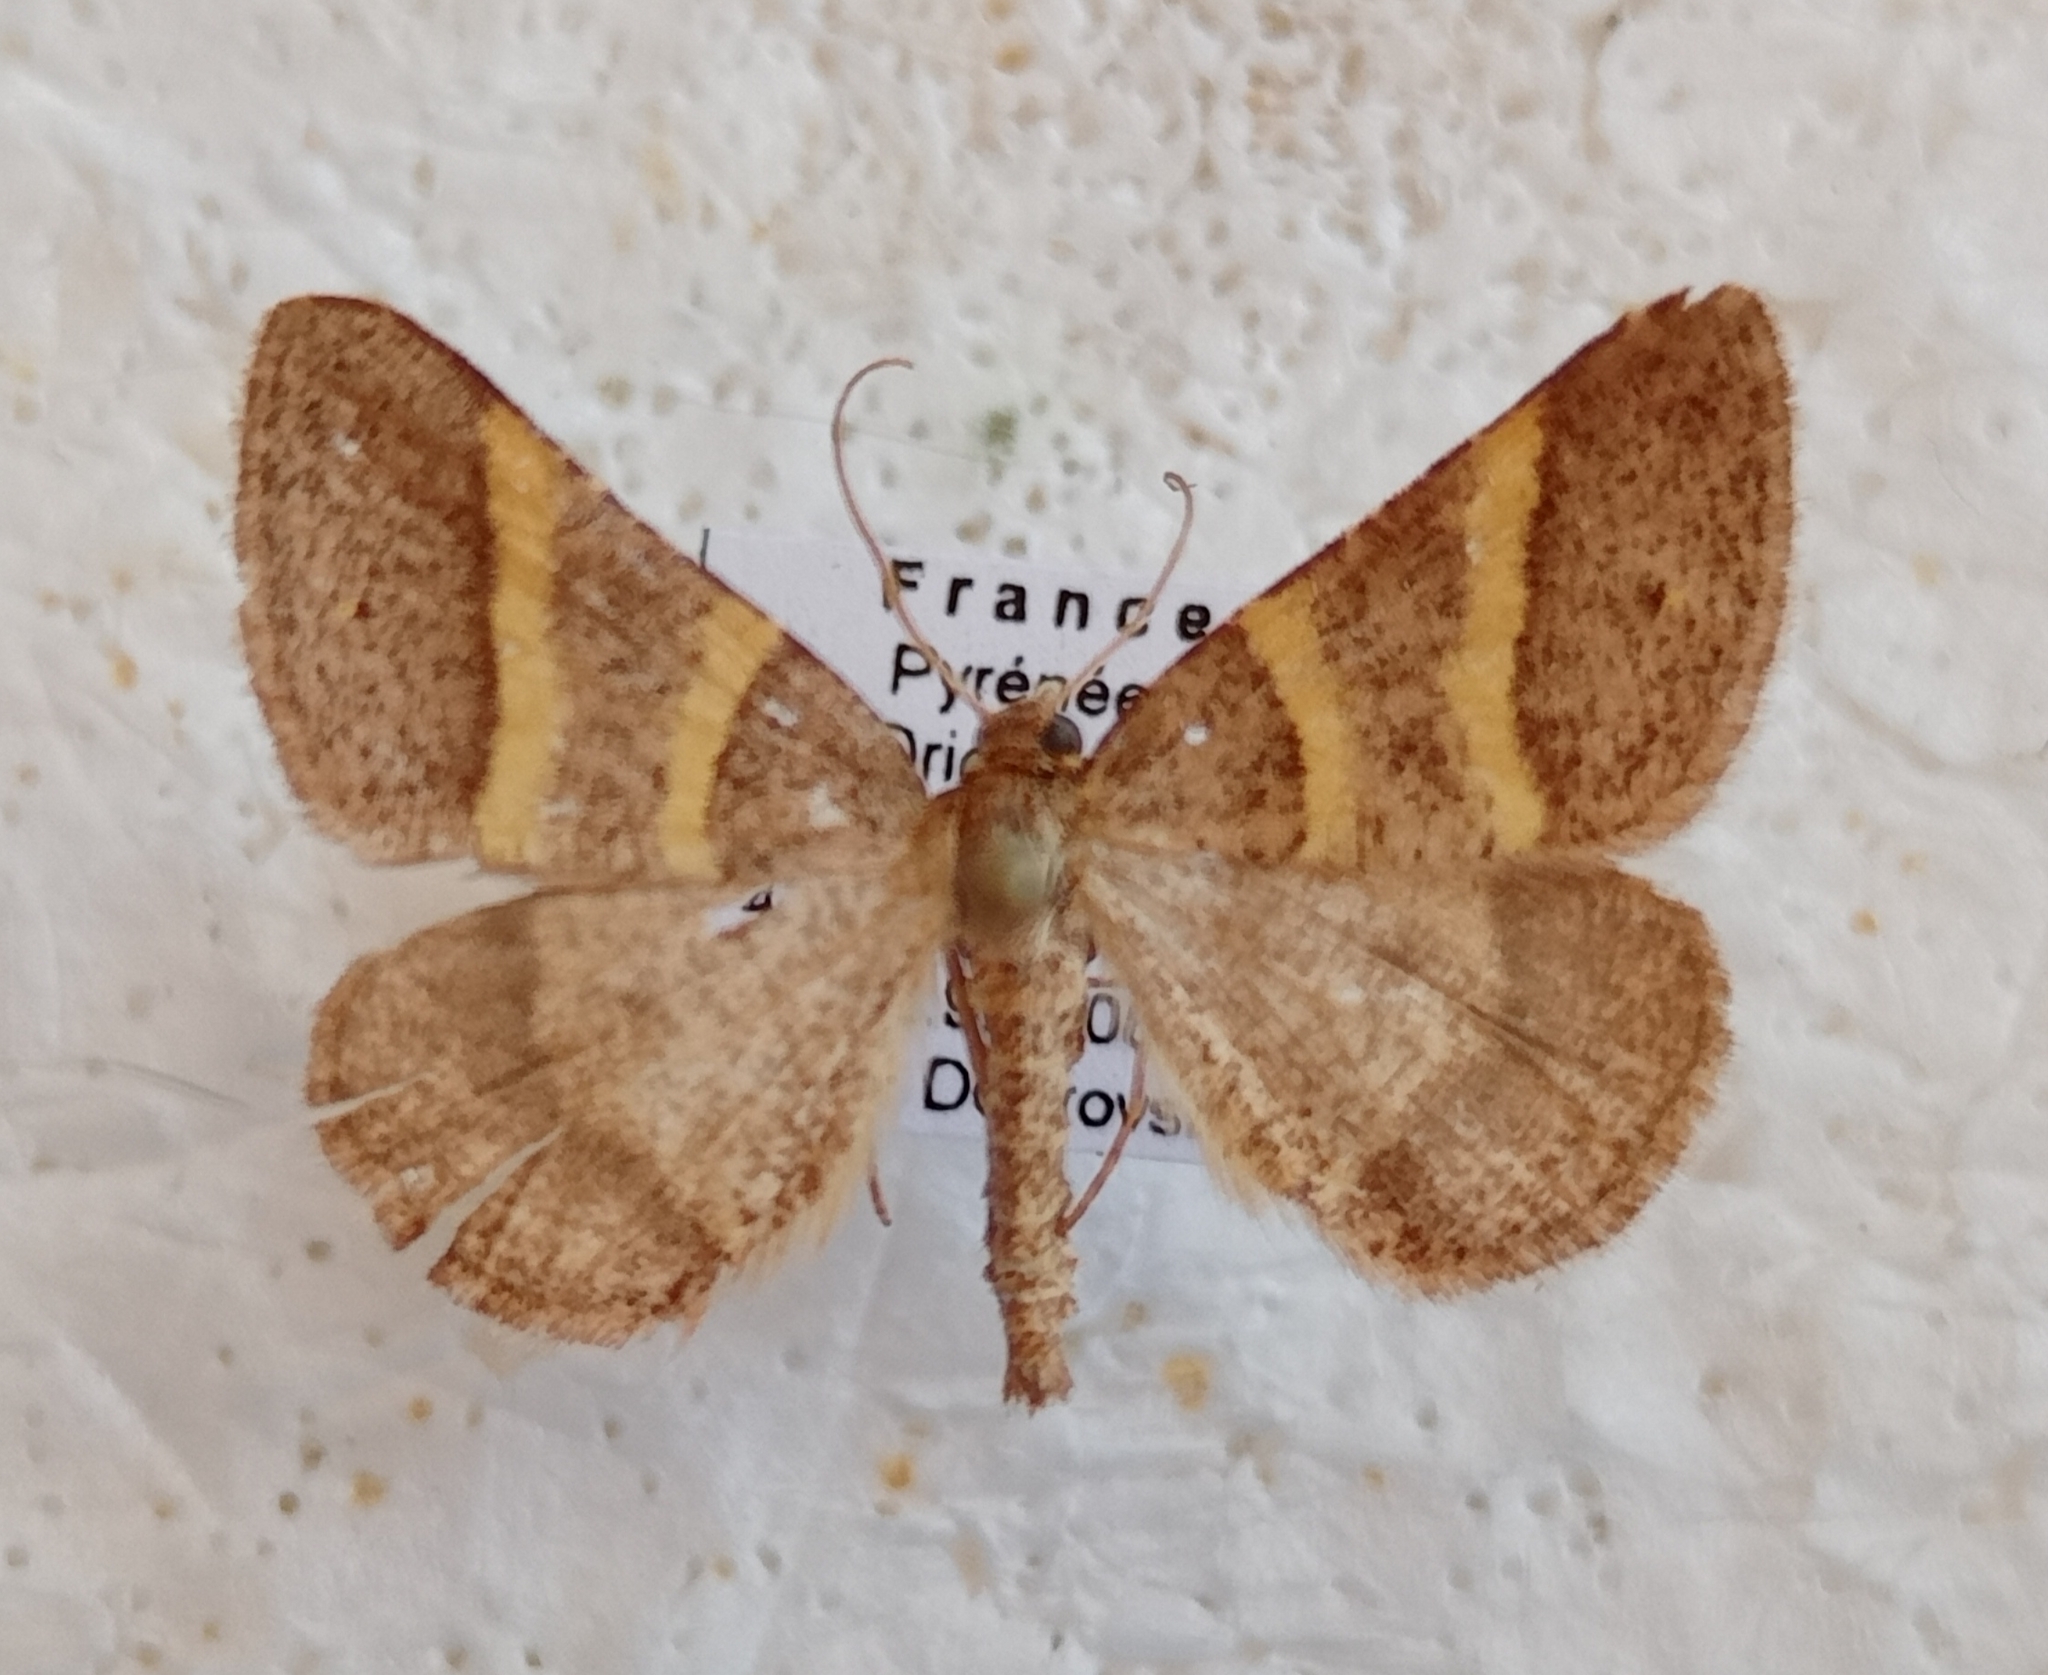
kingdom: Animalia
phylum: Arthropoda
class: Insecta
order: Lepidoptera
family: Pterophoridae
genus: Pterophorus
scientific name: Pterophorus Petrophora narbonea
